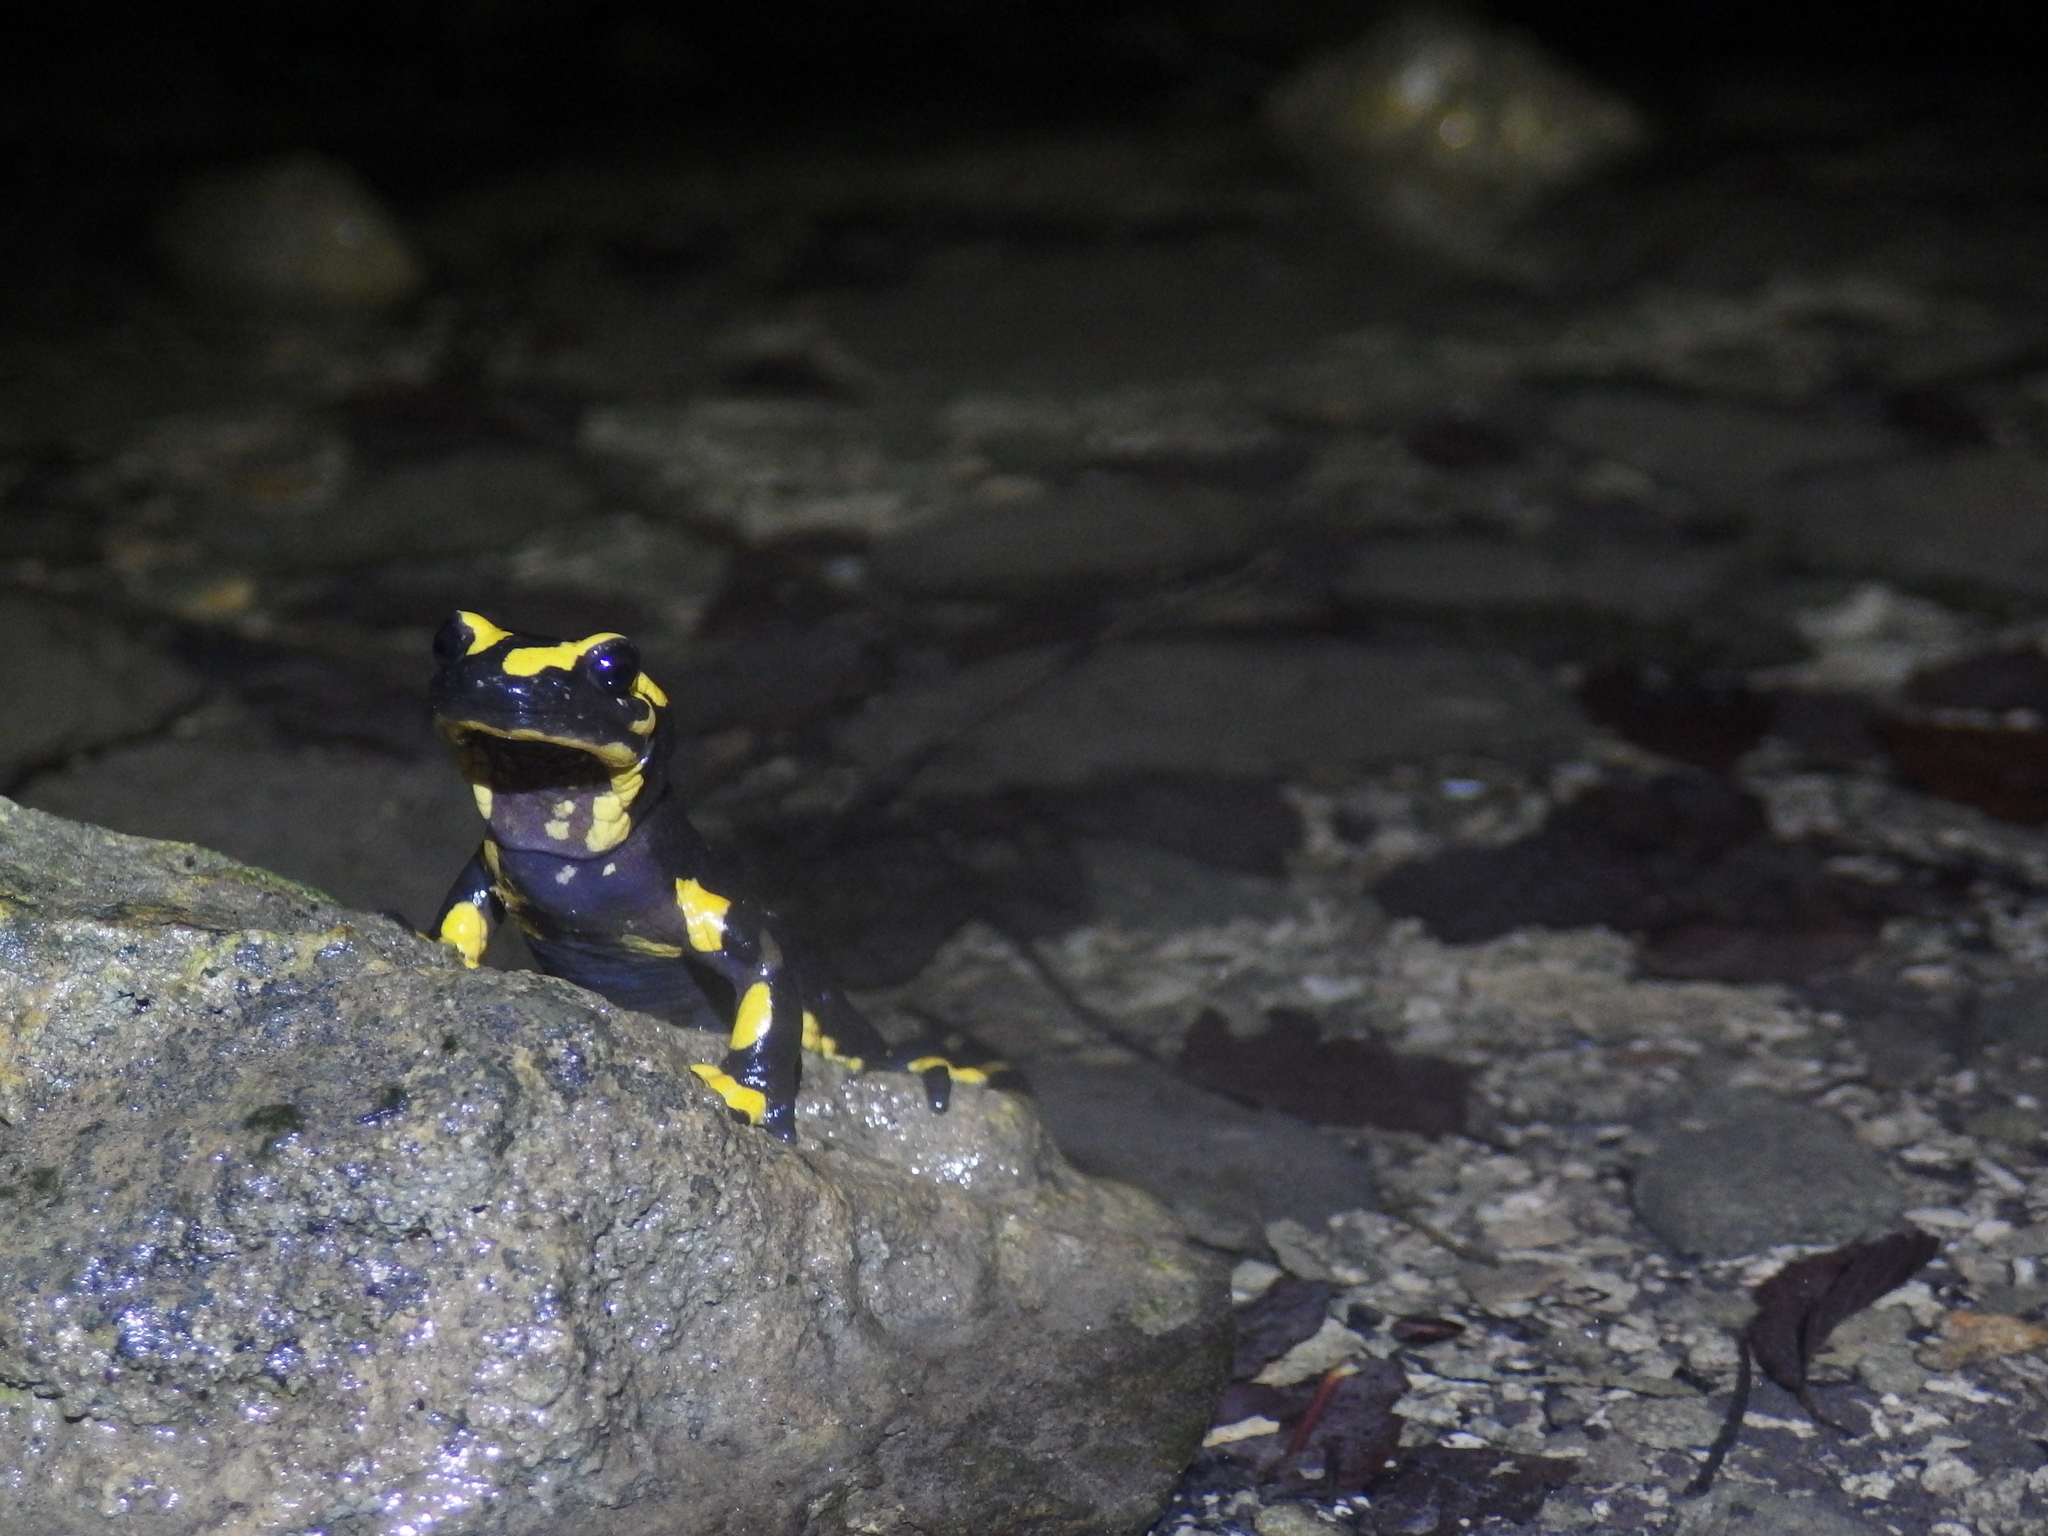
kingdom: Animalia
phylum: Chordata
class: Amphibia
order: Caudata
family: Salamandridae
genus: Salamandra
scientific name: Salamandra salamandra
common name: Fire salamander
